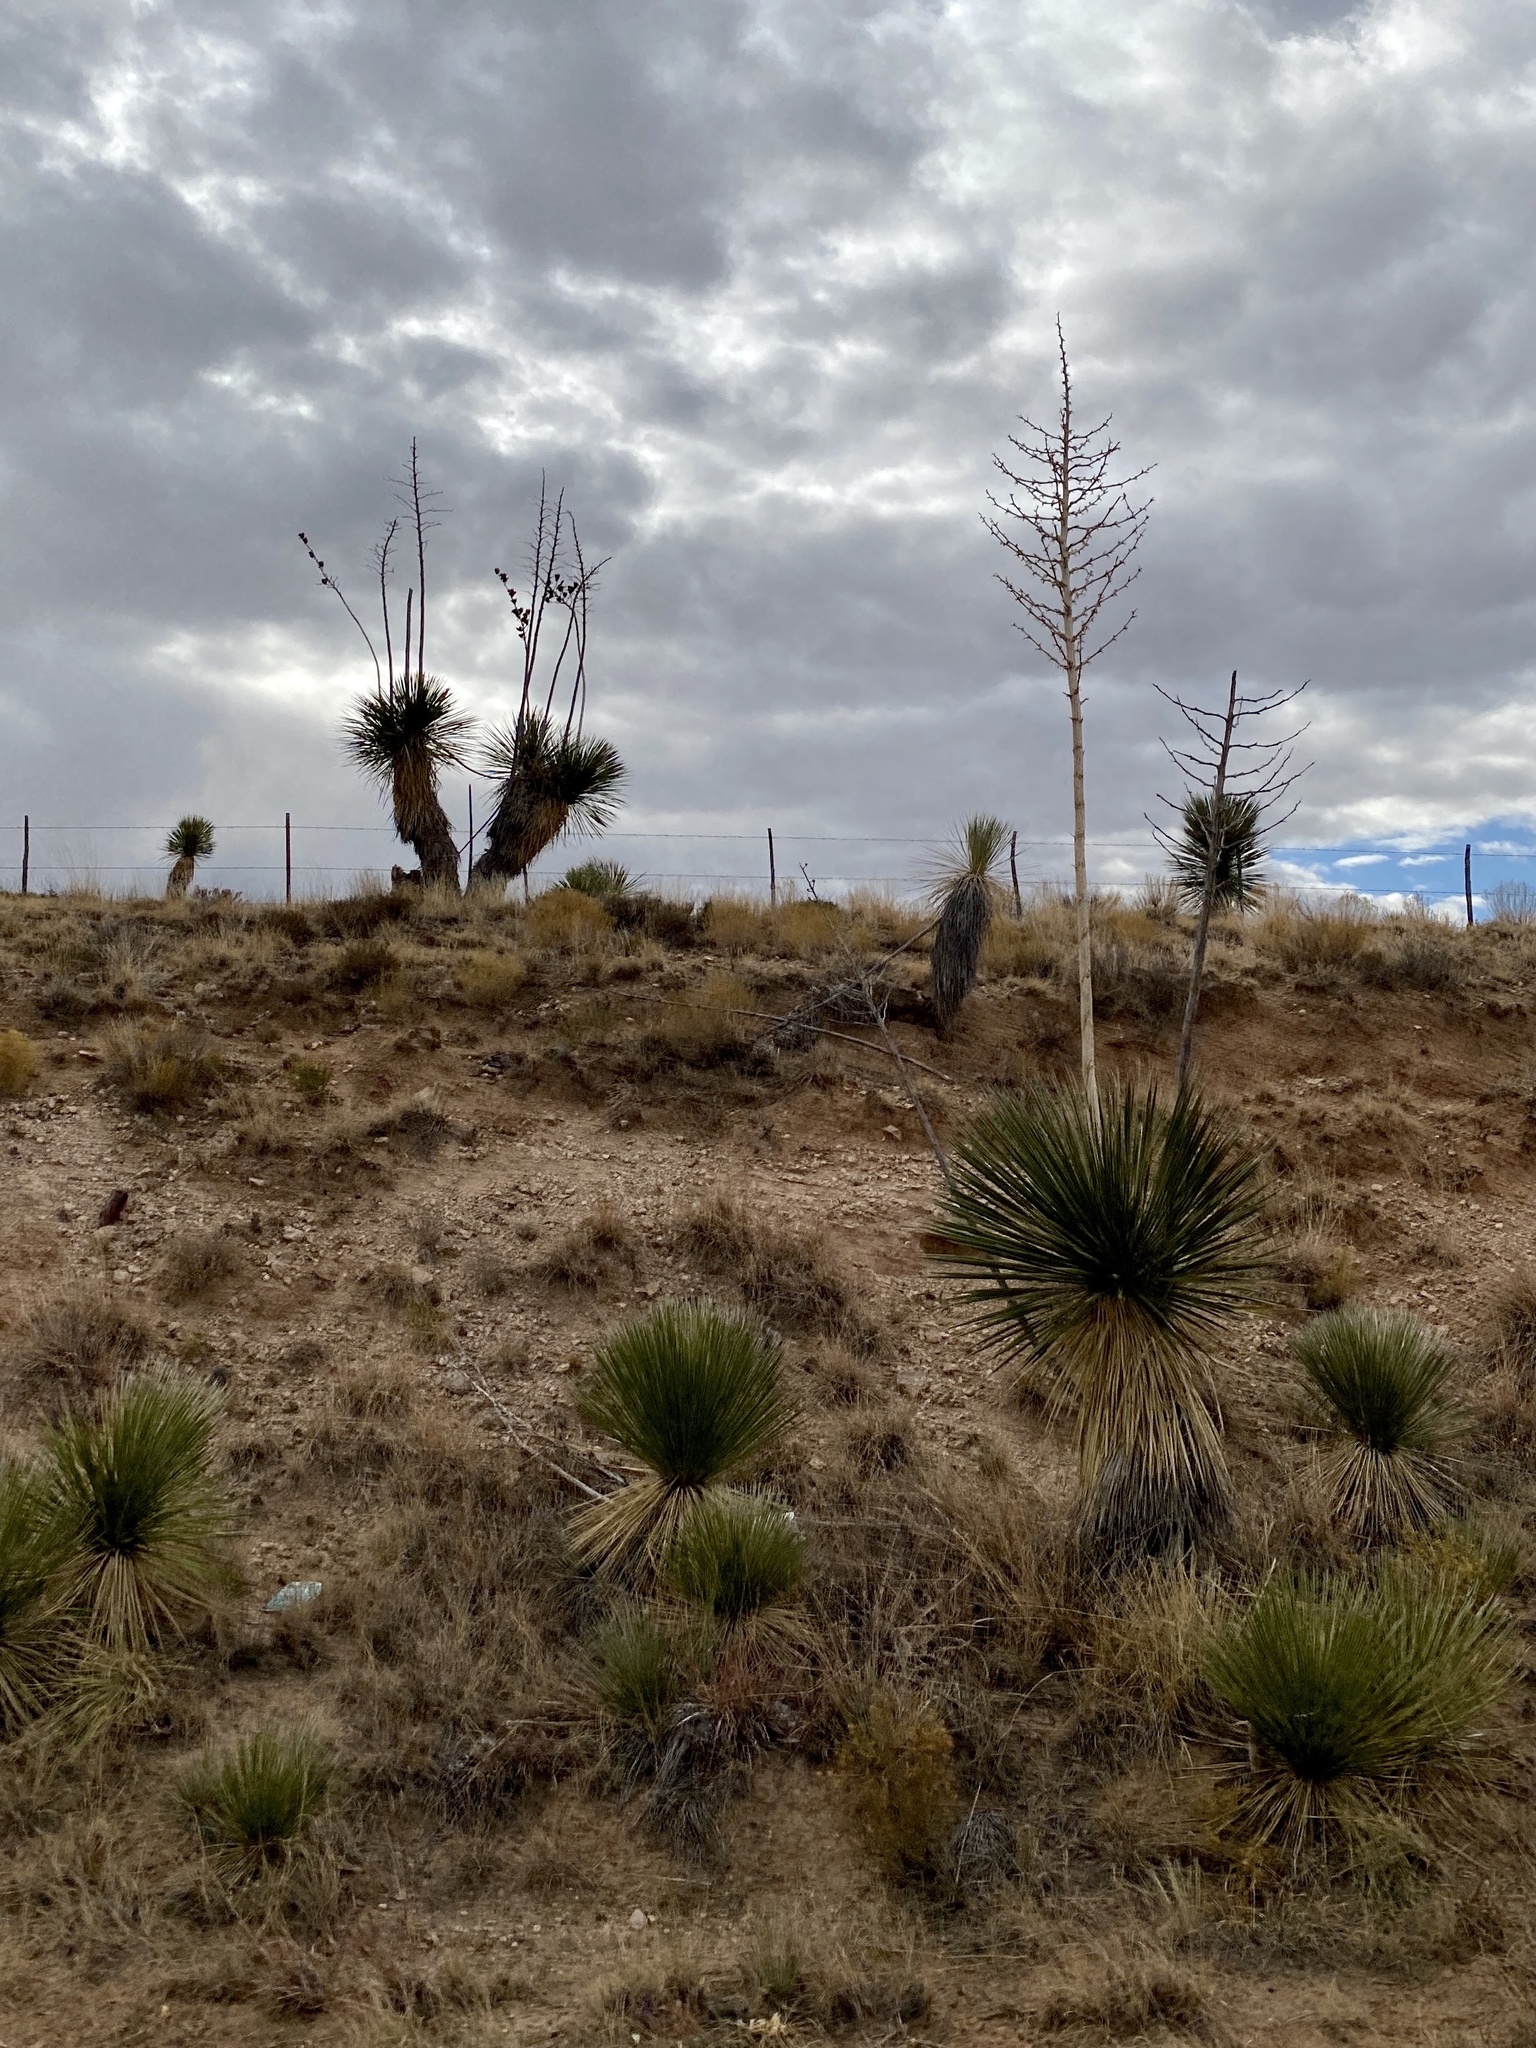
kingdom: Plantae
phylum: Tracheophyta
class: Liliopsida
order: Asparagales
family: Asparagaceae
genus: Yucca
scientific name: Yucca elata
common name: Palmella
